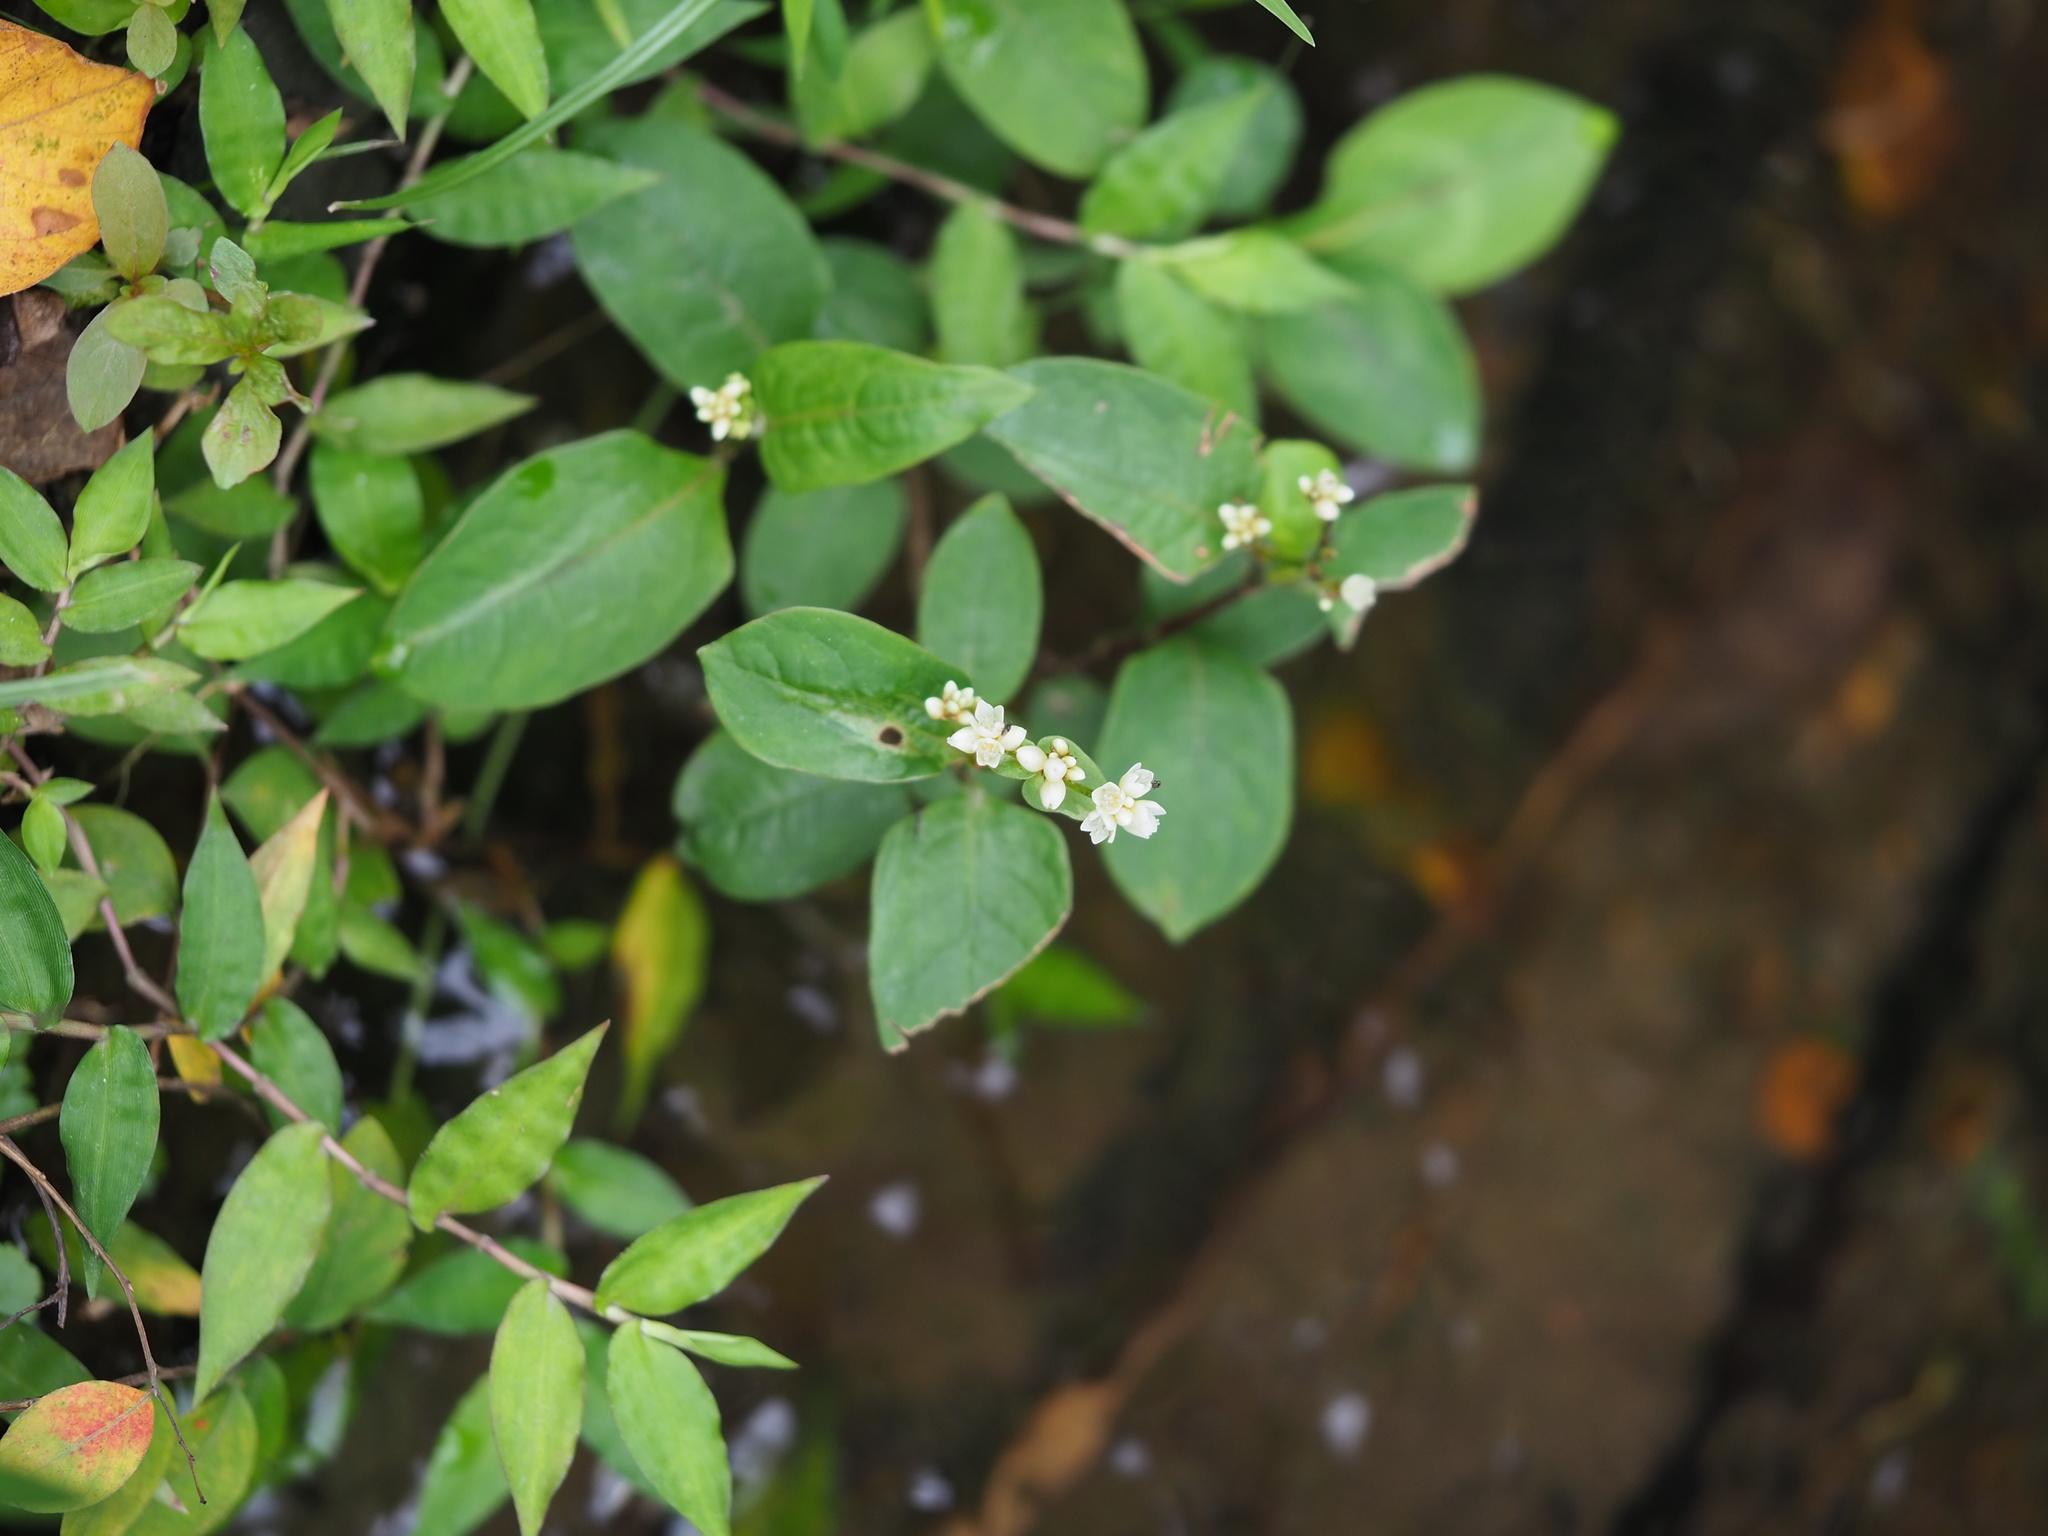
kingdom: Plantae
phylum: Tracheophyta
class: Magnoliopsida
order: Caryophyllales
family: Polygonaceae
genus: Persicaria
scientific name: Persicaria chinensis
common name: Chinese knotweed
